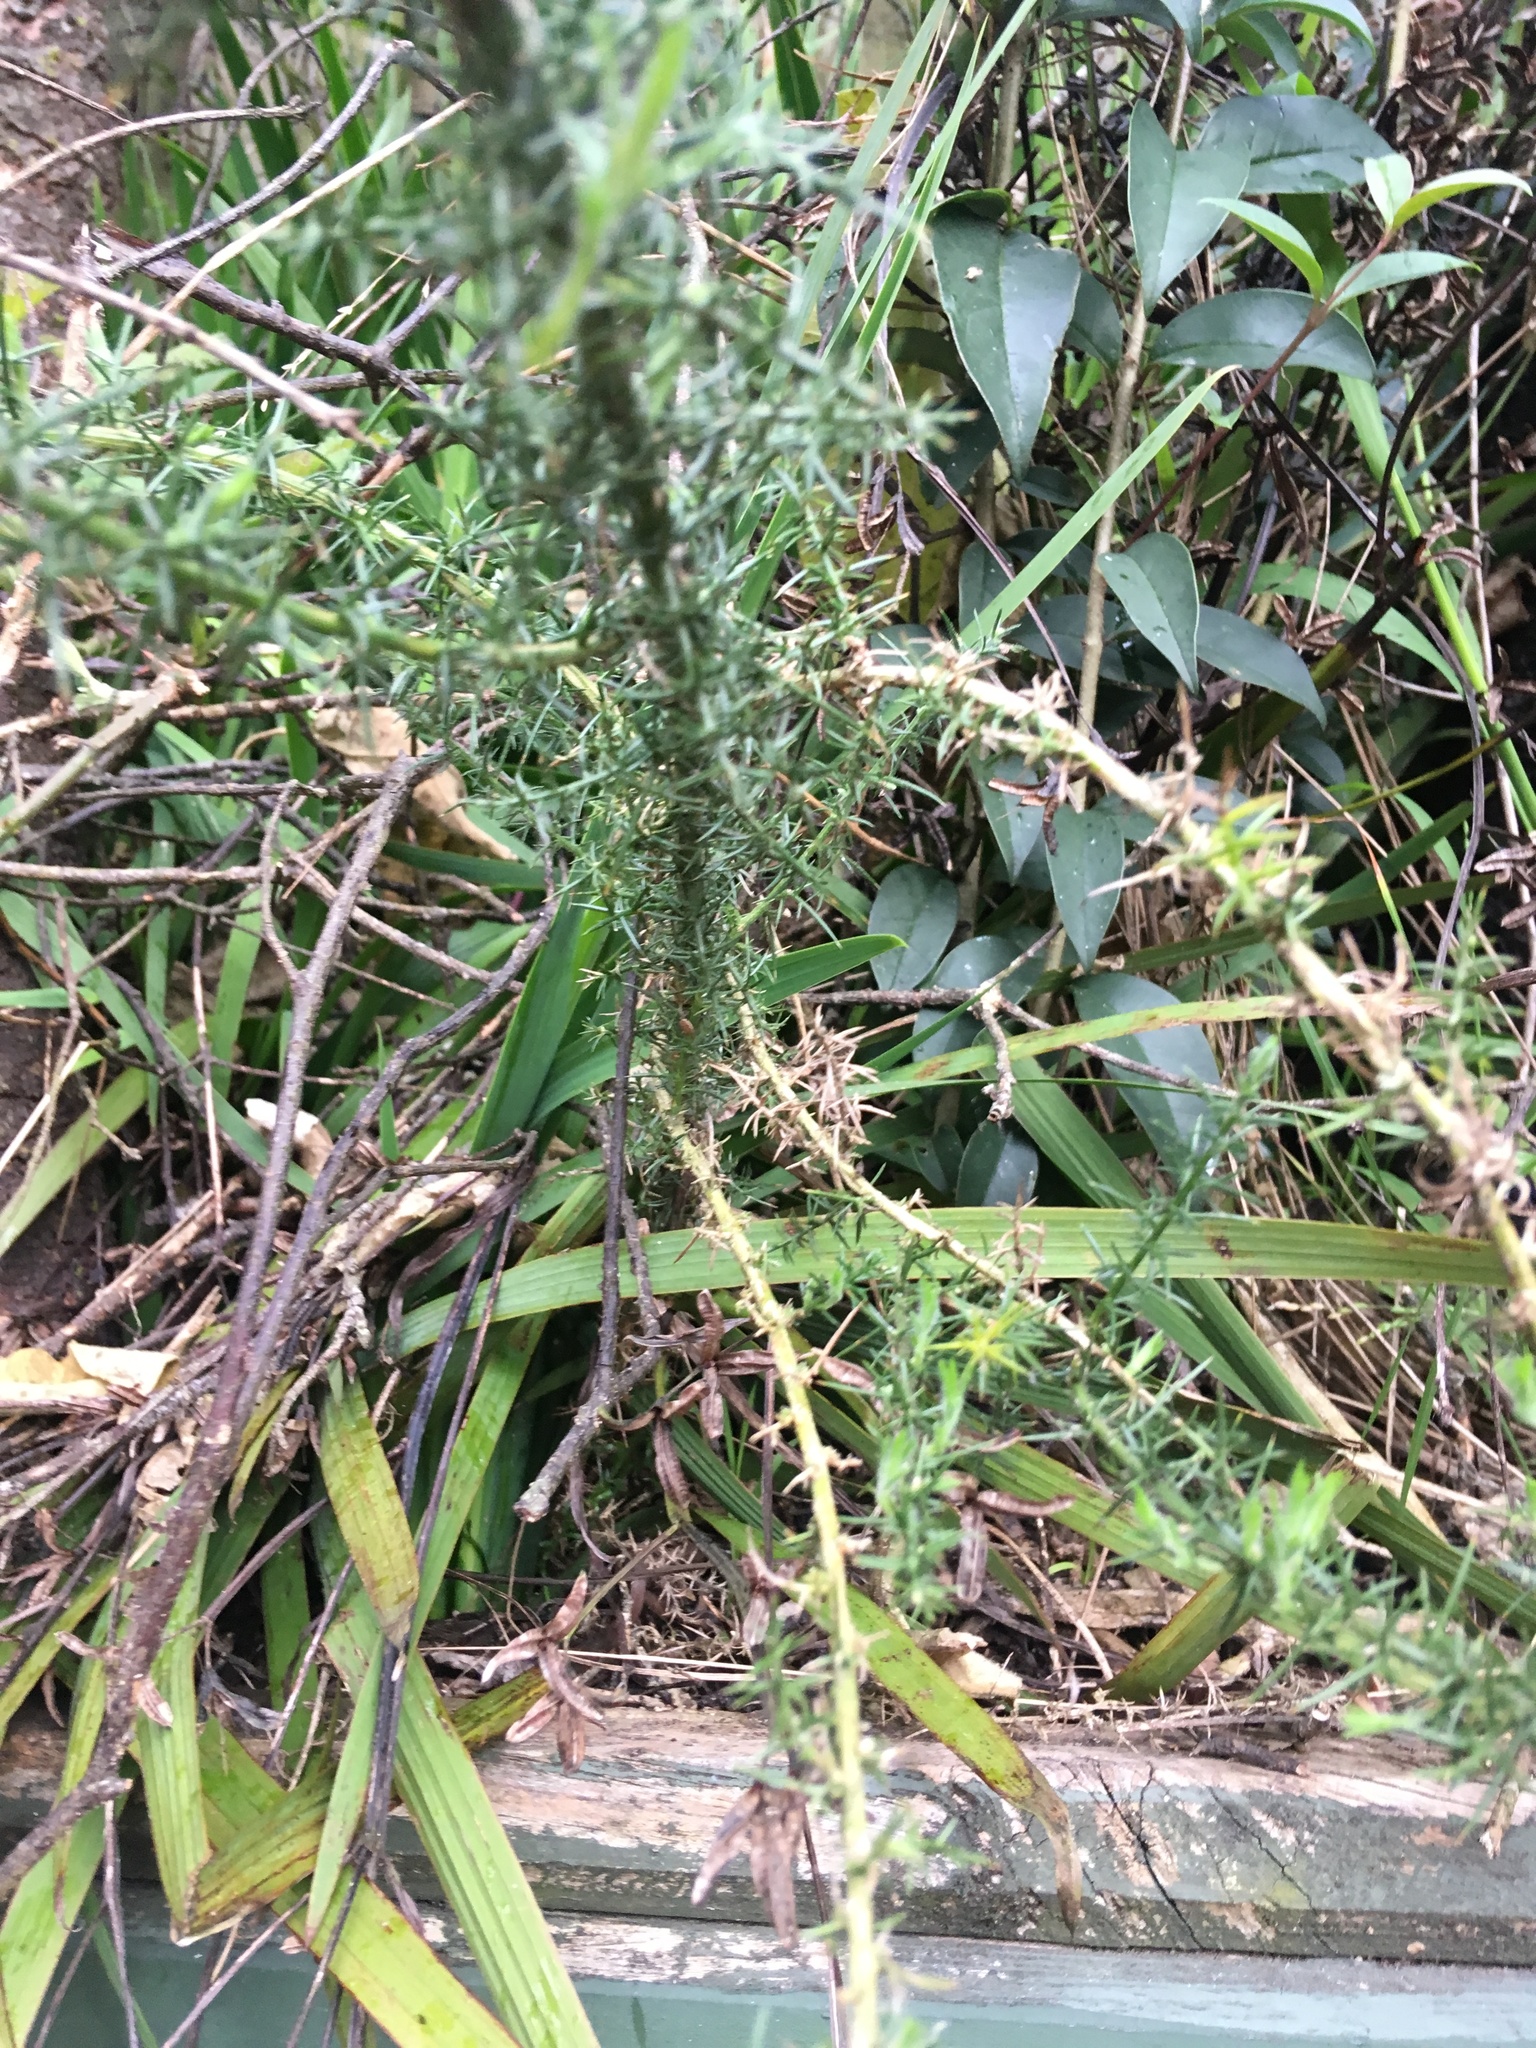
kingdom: Plantae
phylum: Tracheophyta
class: Magnoliopsida
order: Fabales
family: Fabaceae
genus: Ulex
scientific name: Ulex europaeus
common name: Common gorse
